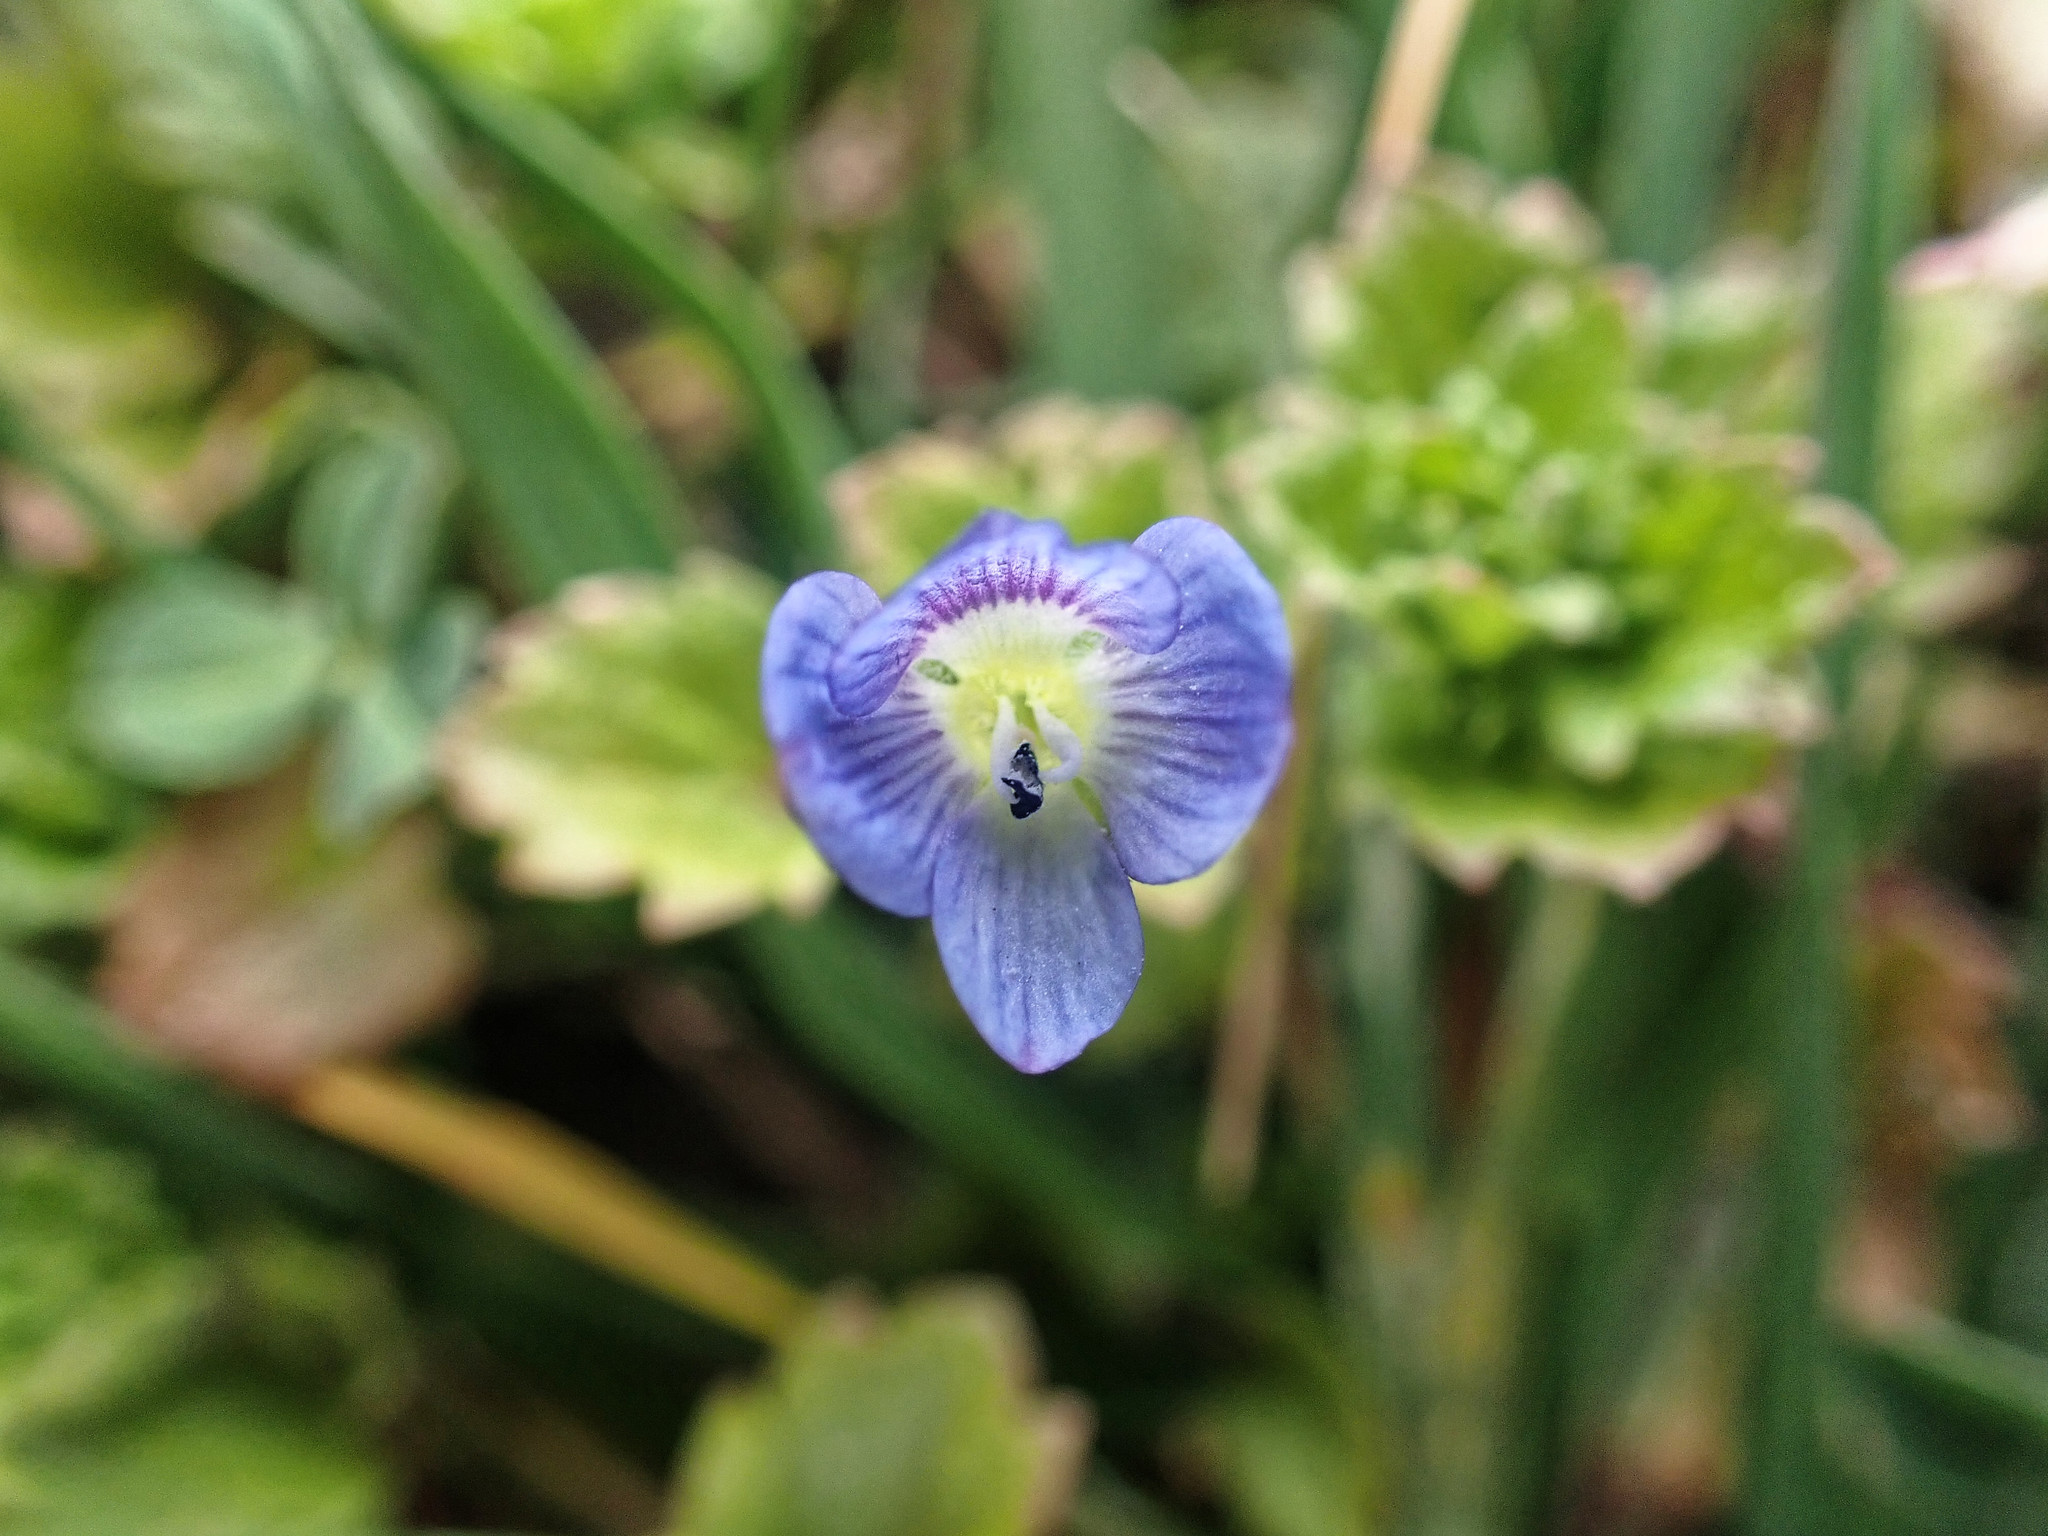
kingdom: Plantae
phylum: Tracheophyta
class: Magnoliopsida
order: Lamiales
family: Plantaginaceae
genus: Veronica
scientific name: Veronica persica
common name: Common field-speedwell
